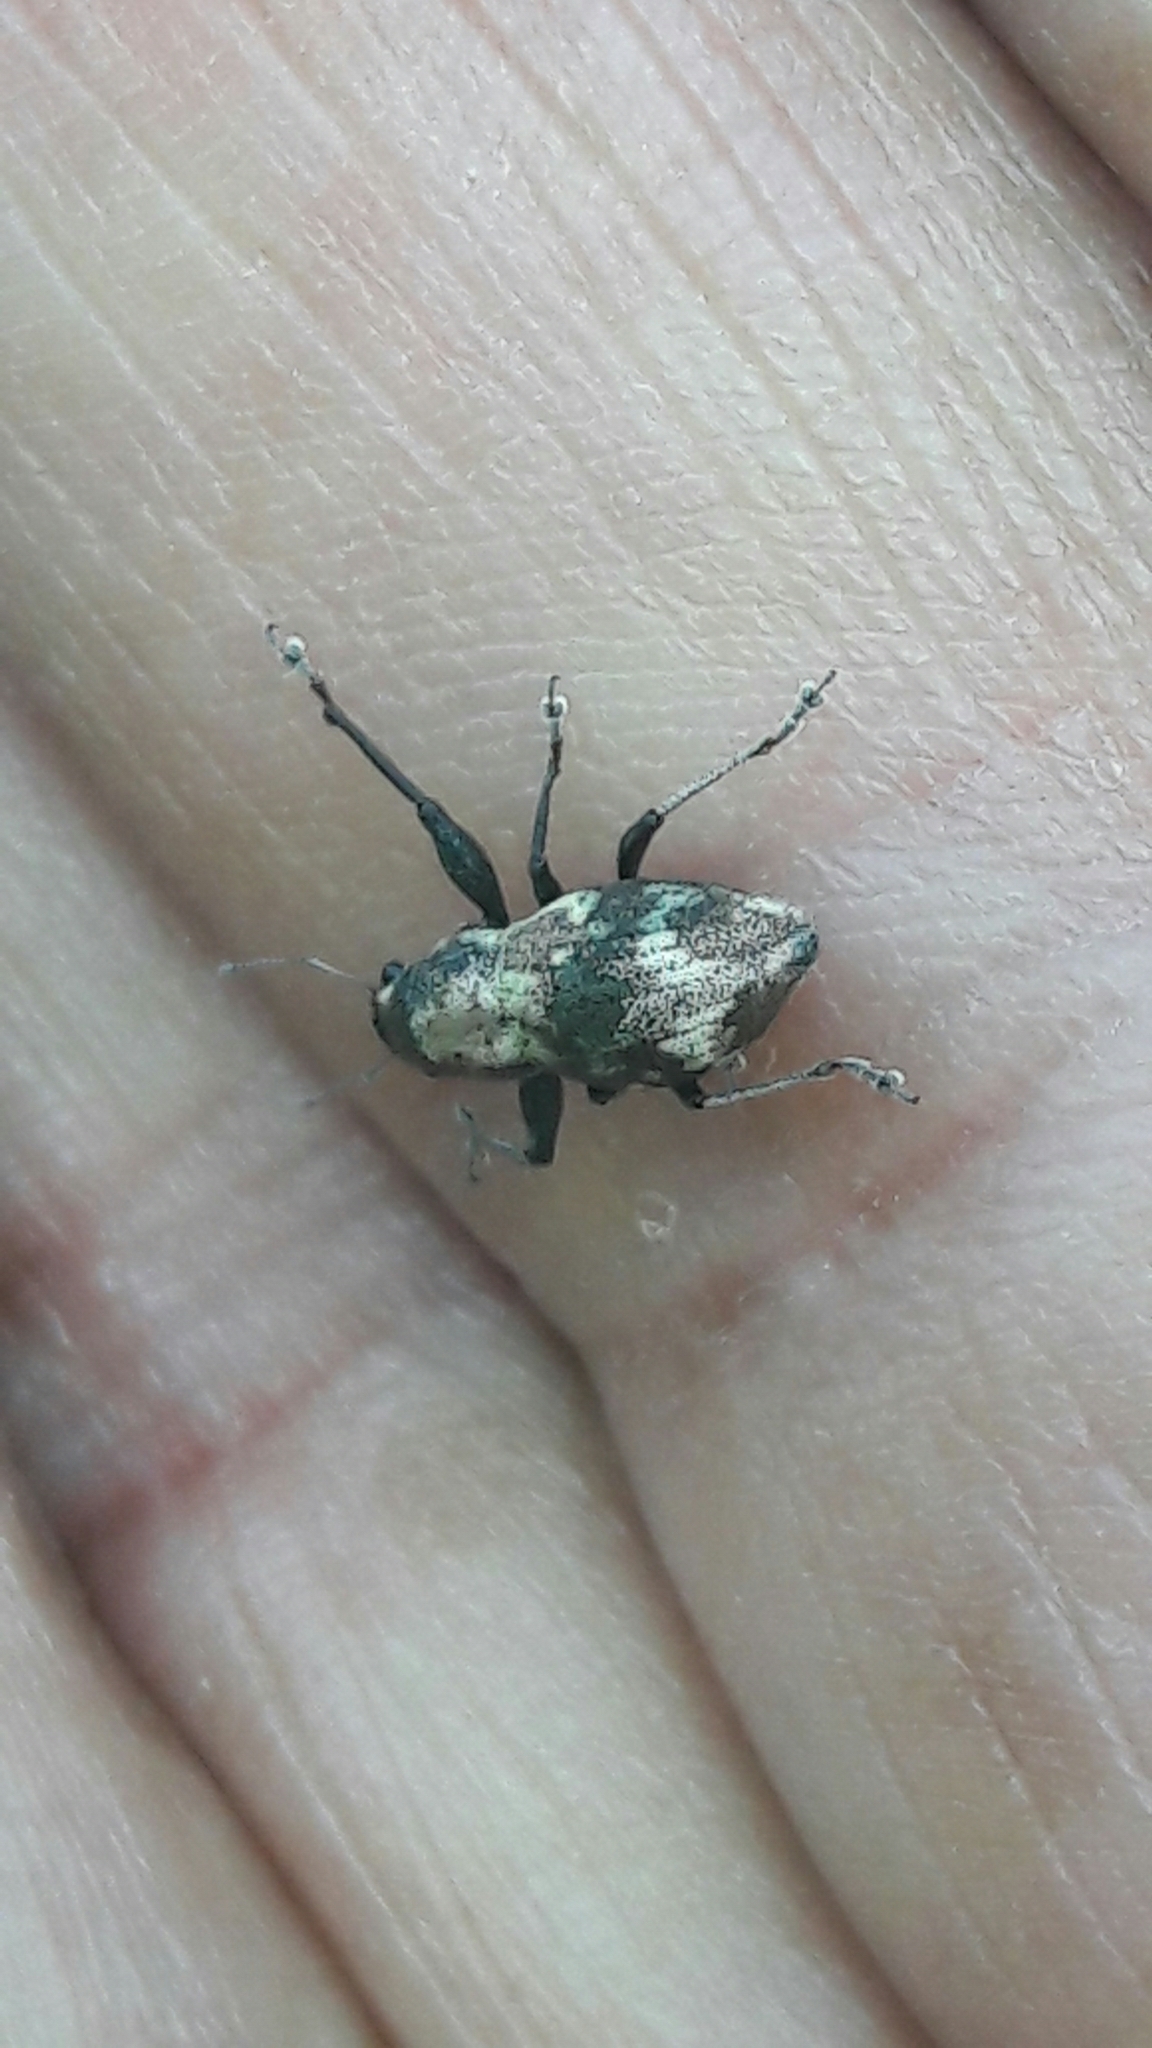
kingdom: Animalia
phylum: Arthropoda
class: Insecta
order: Coleoptera
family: Curculionidae
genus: Parapantomorus
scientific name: Parapantomorus fluctuosus
